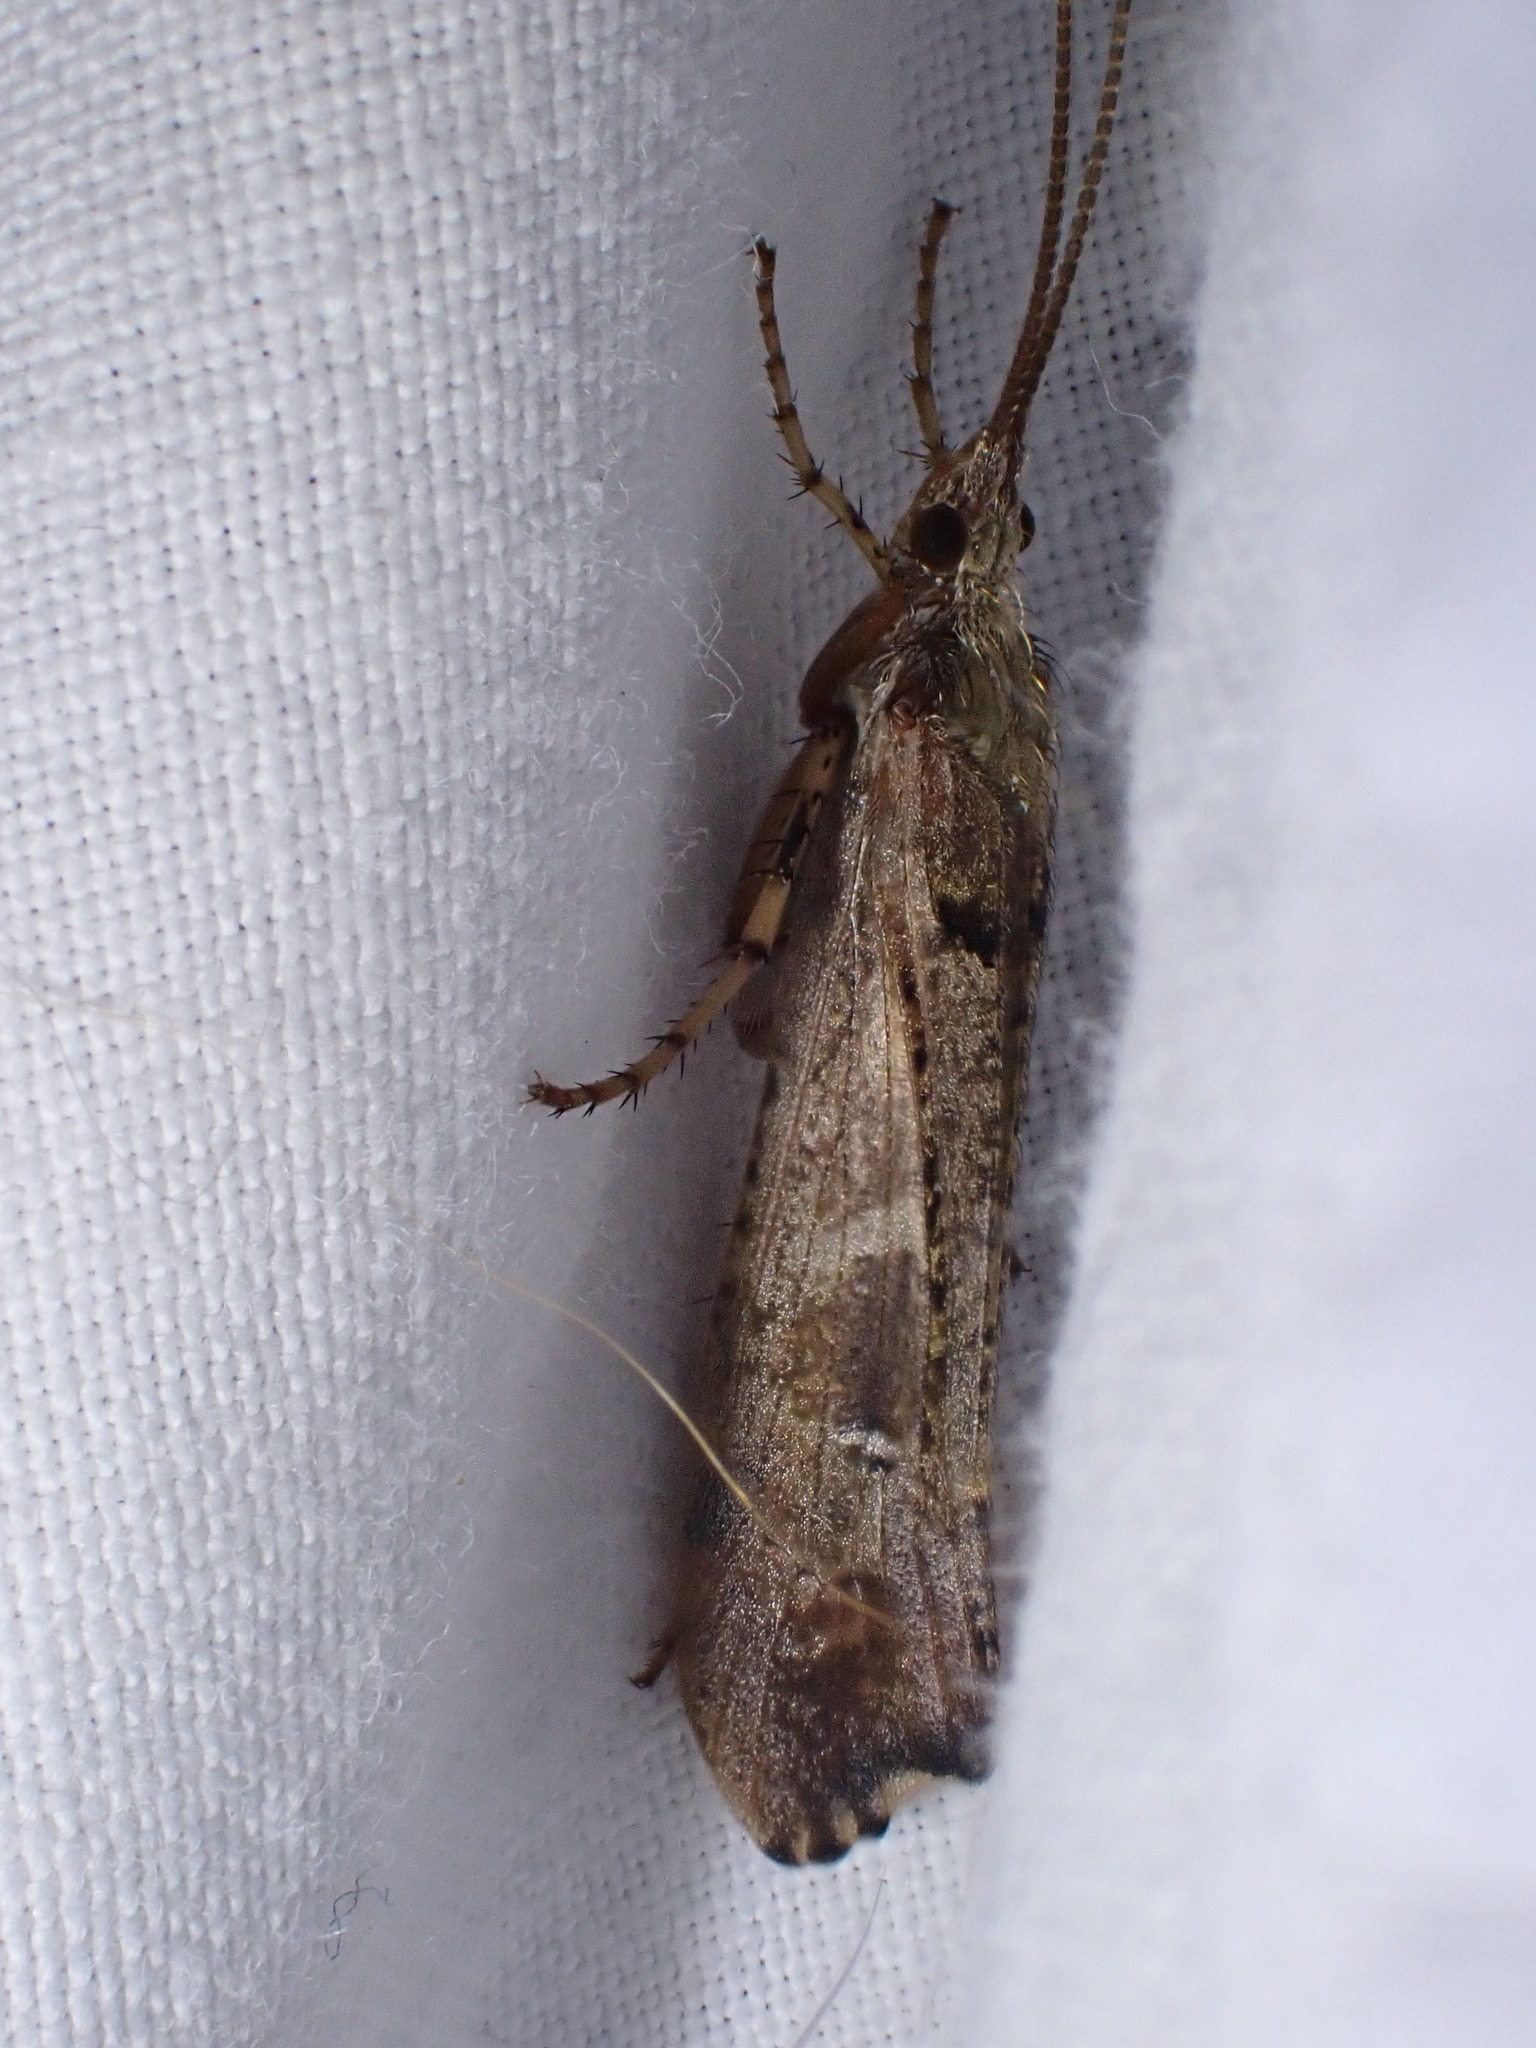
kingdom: Animalia
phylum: Arthropoda
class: Insecta
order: Trichoptera
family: Limnephilidae
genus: Glyphotaelius
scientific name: Glyphotaelius pellucidus
